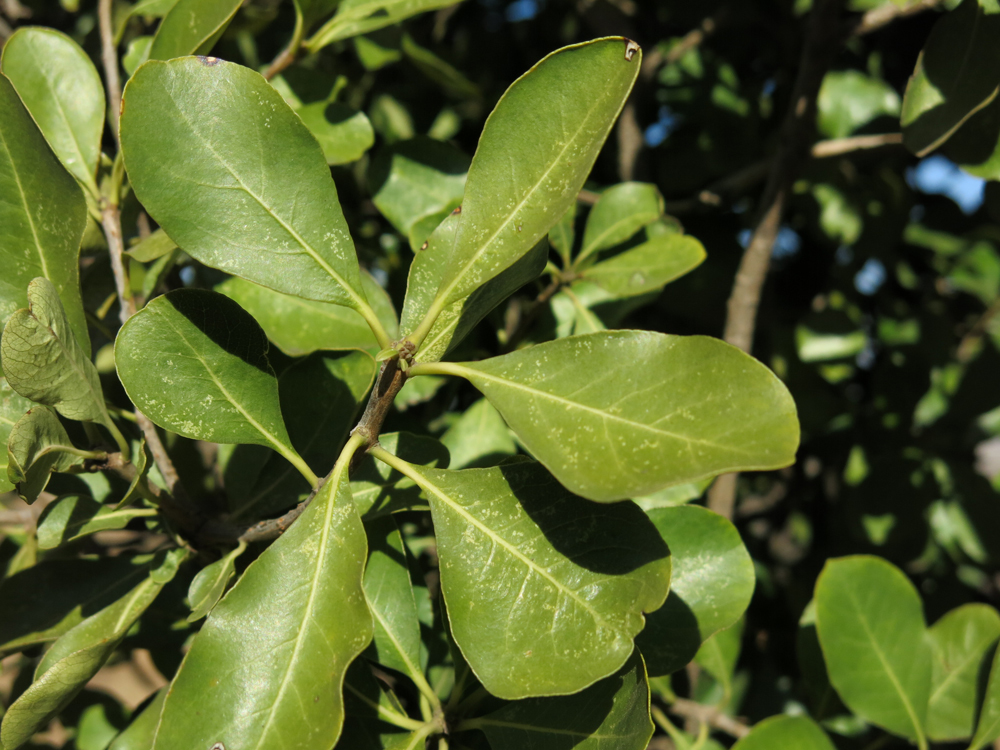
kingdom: Plantae
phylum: Tracheophyta
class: Magnoliopsida
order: Apiales
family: Pittosporaceae
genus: Pittosporum
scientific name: Pittosporum viridiflorum
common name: Cape cheesewood
